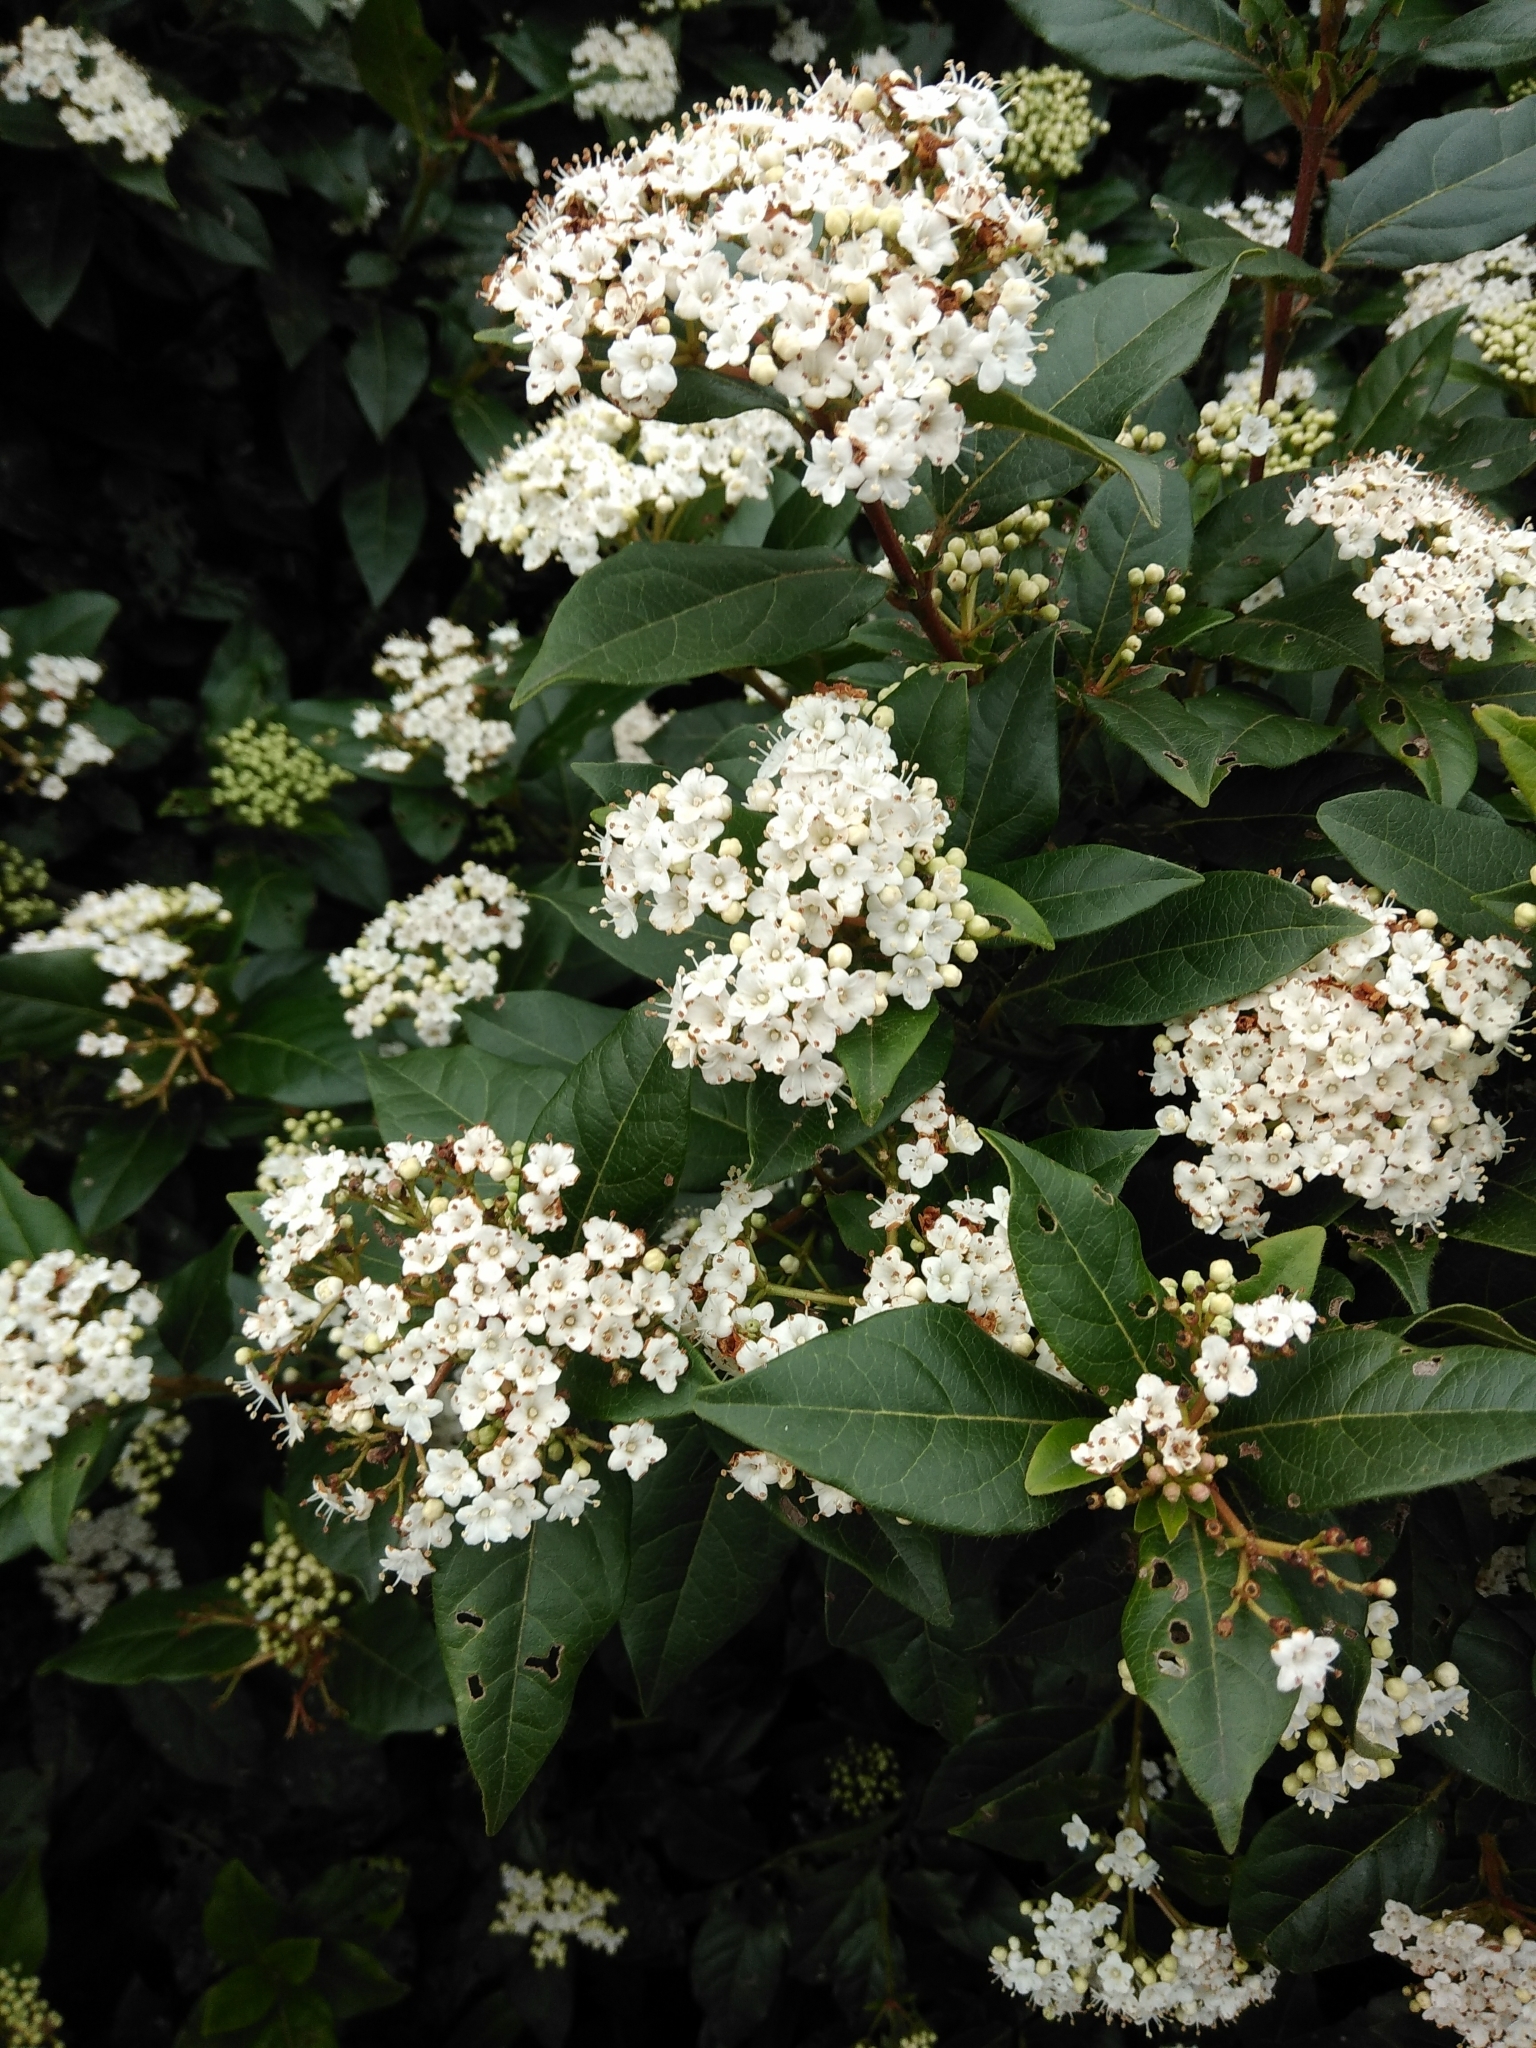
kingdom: Plantae
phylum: Tracheophyta
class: Magnoliopsida
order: Dipsacales
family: Viburnaceae
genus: Viburnum
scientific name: Viburnum tinus
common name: Laurustinus
